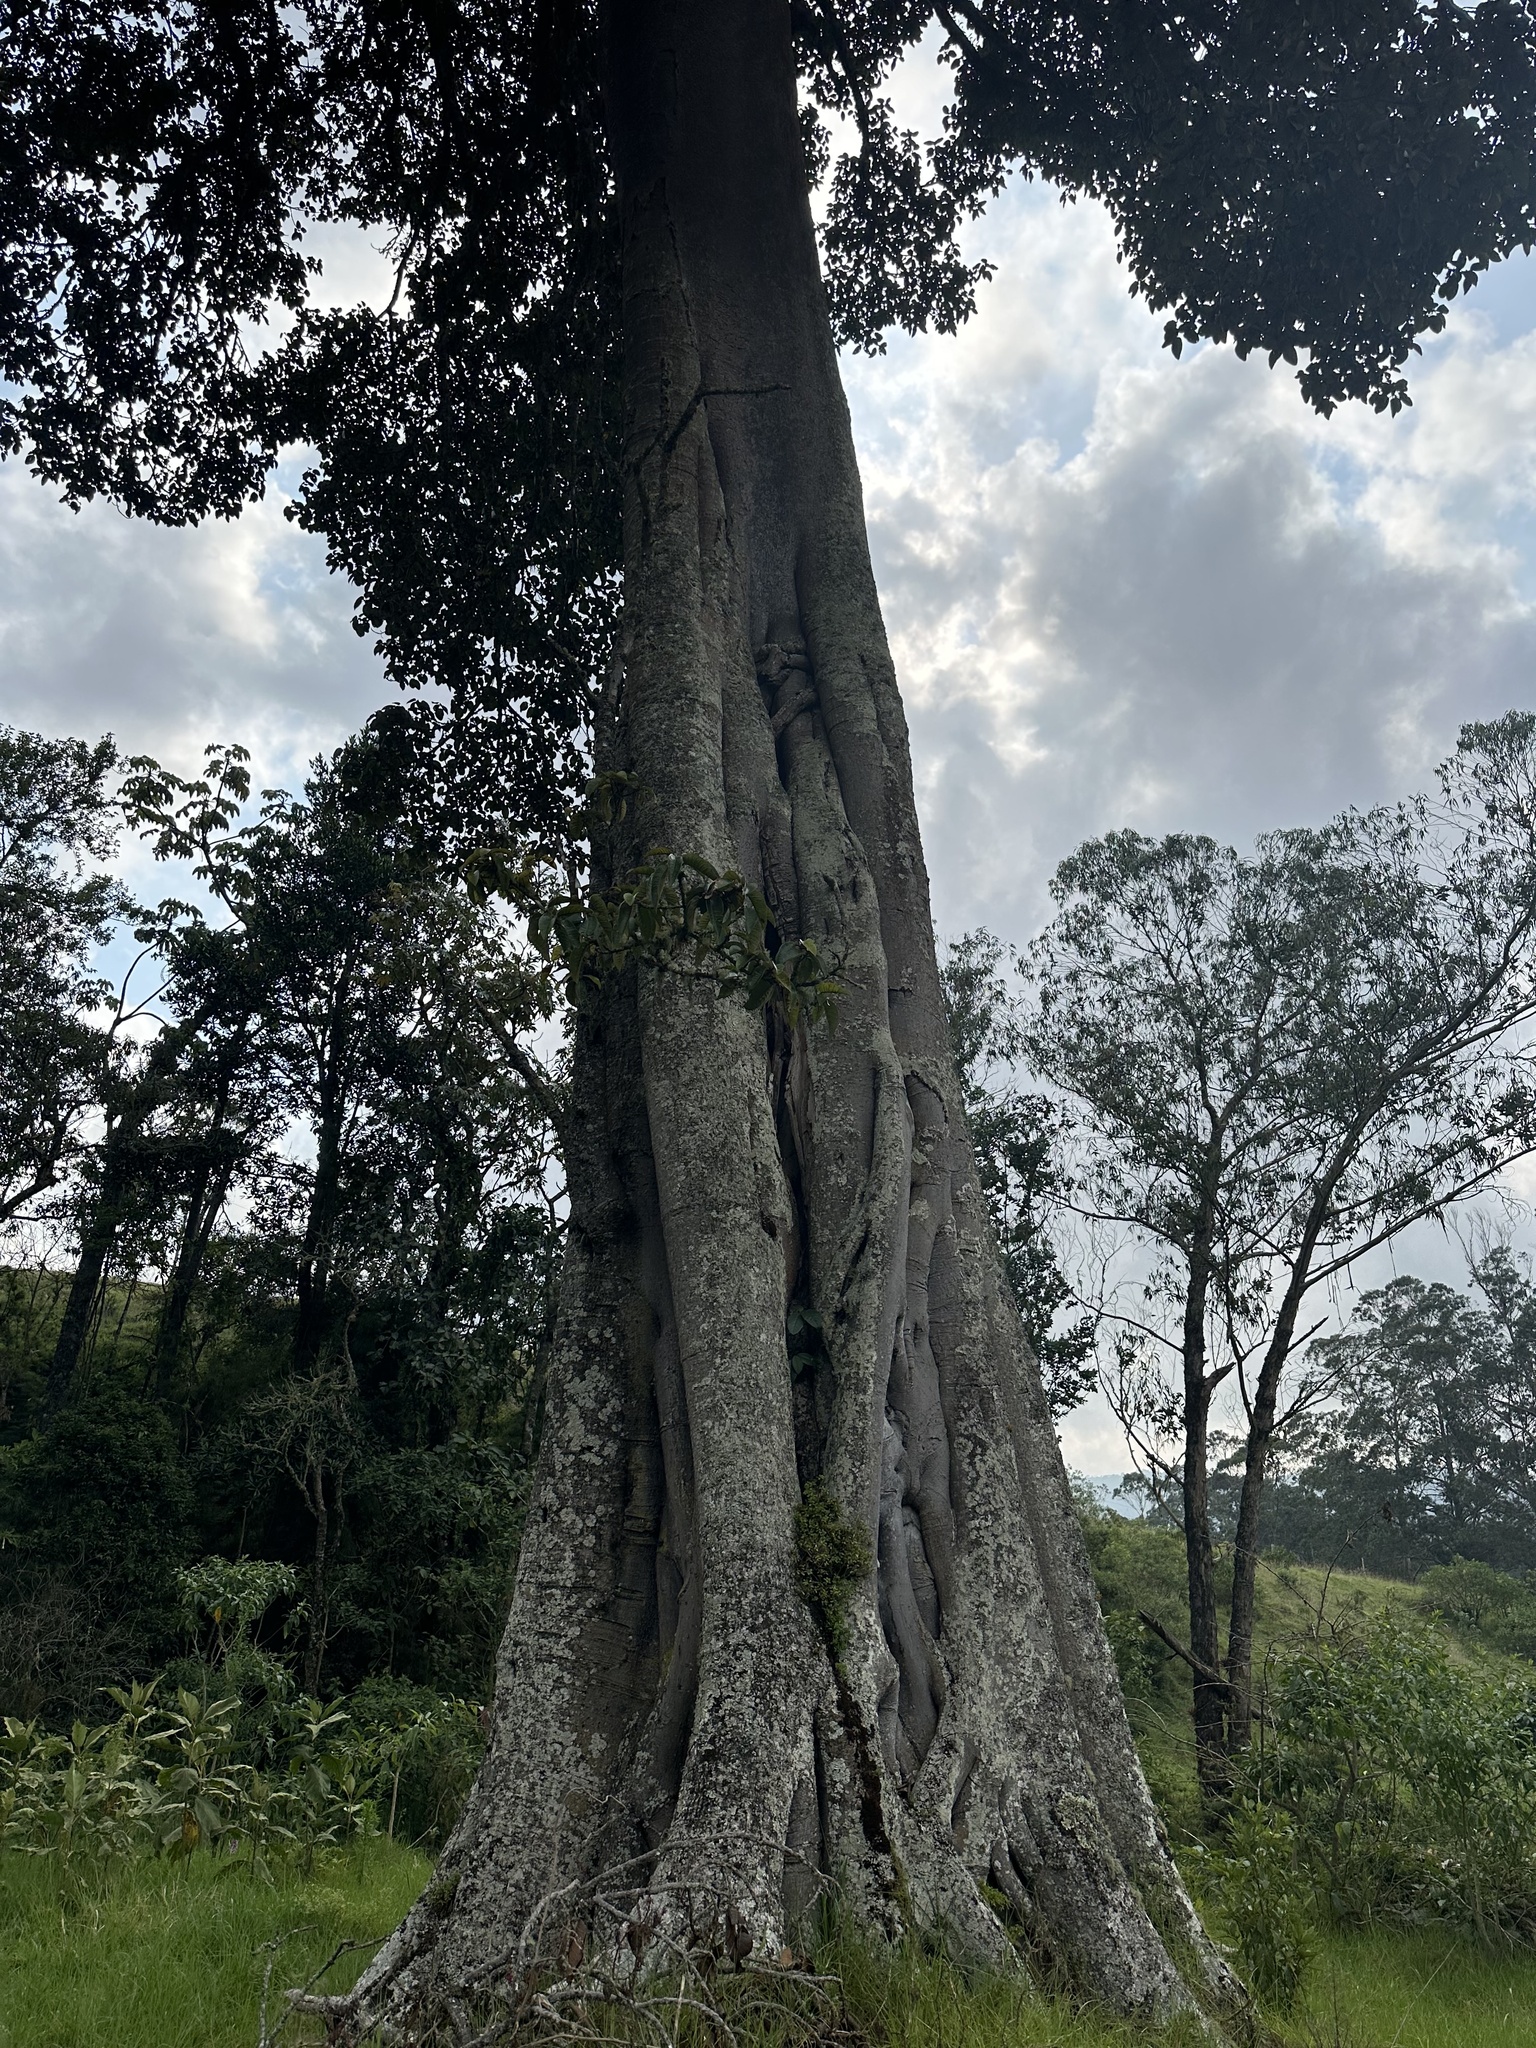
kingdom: Plantae
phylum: Tracheophyta
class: Magnoliopsida
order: Rosales
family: Moraceae
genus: Ficus
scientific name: Ficus tequendamae
